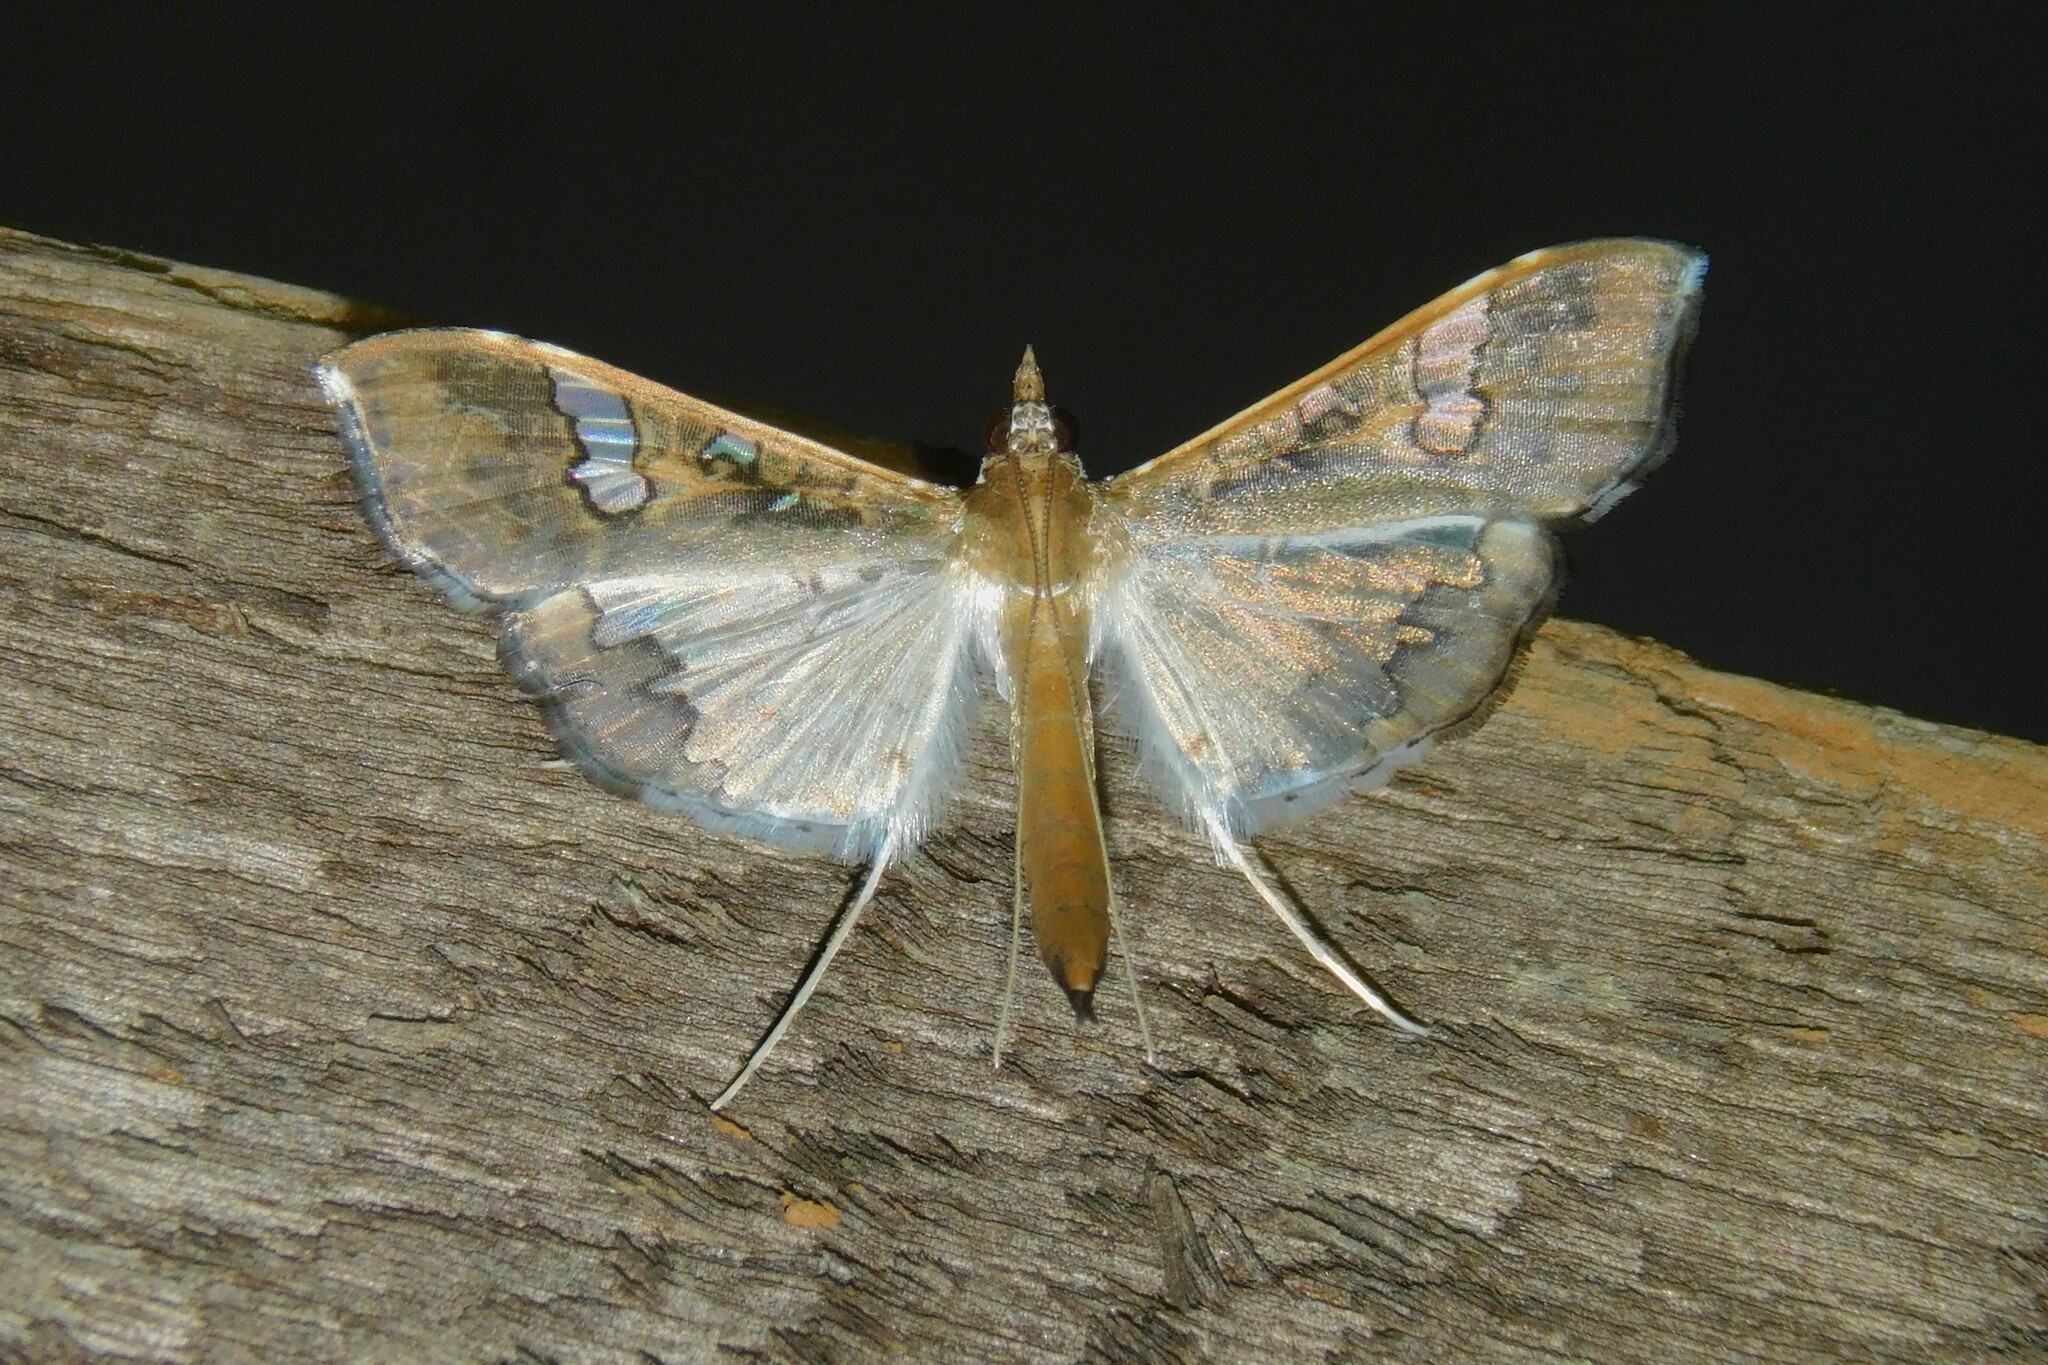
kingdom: Animalia
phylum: Arthropoda
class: Insecta
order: Lepidoptera
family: Crambidae
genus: Maruca
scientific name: Maruca vitrata
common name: Maruca pod borer
